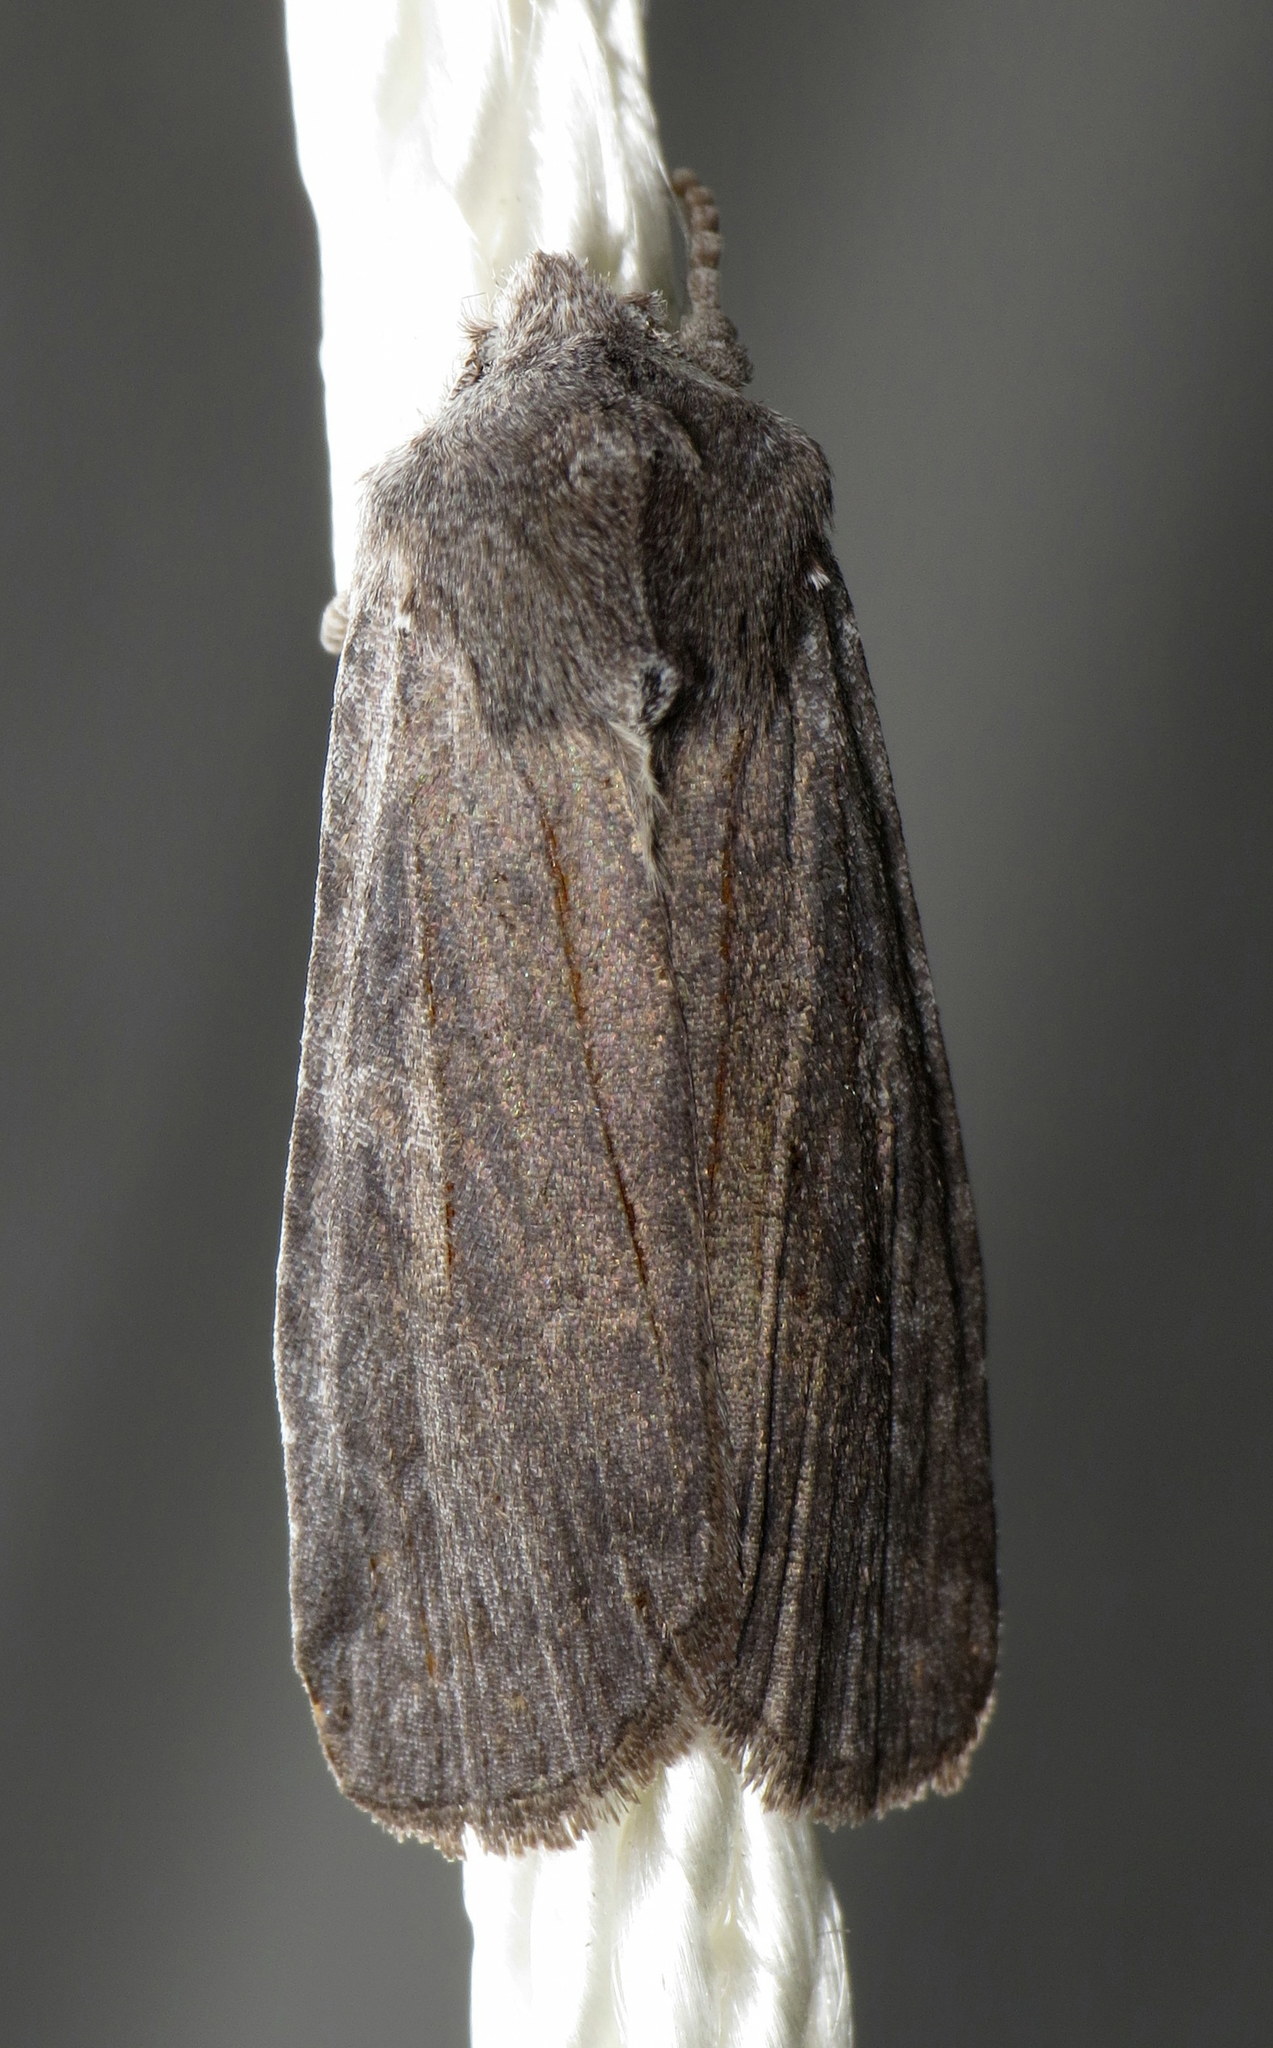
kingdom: Animalia
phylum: Arthropoda
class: Insecta
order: Lepidoptera
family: Noctuidae
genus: Lithophane
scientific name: Lithophane unimoda
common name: Dowdy pinion
